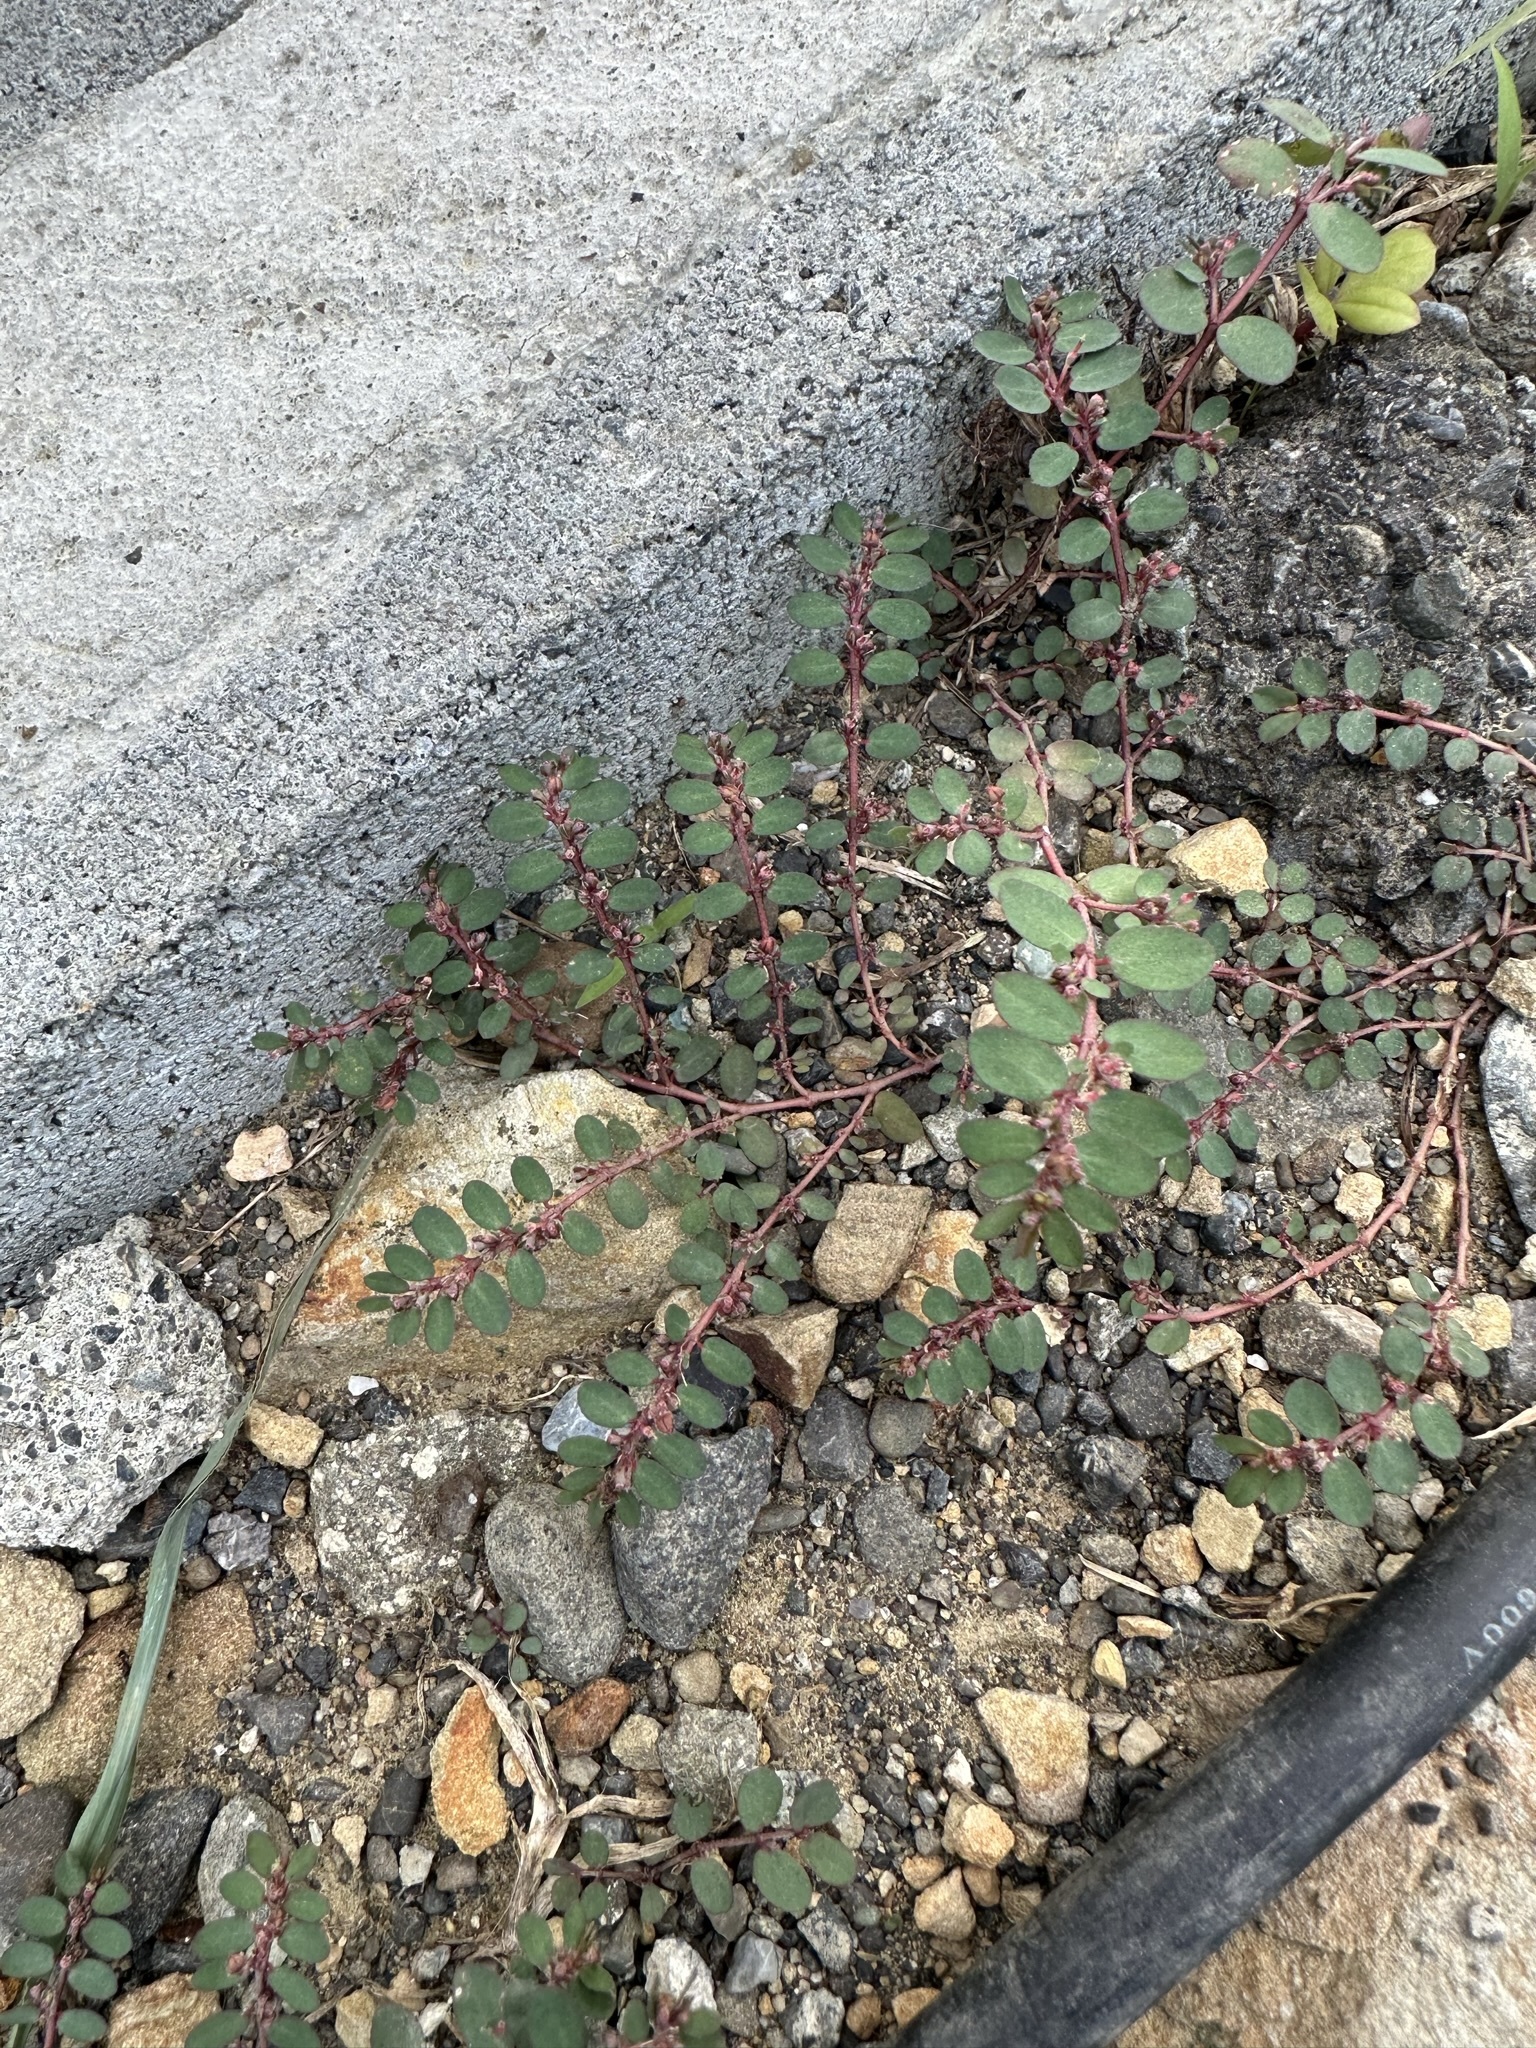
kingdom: Plantae
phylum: Tracheophyta
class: Magnoliopsida
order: Malpighiales
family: Euphorbiaceae
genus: Euphorbia
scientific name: Euphorbia prostrata
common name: Prostrate sandmat
